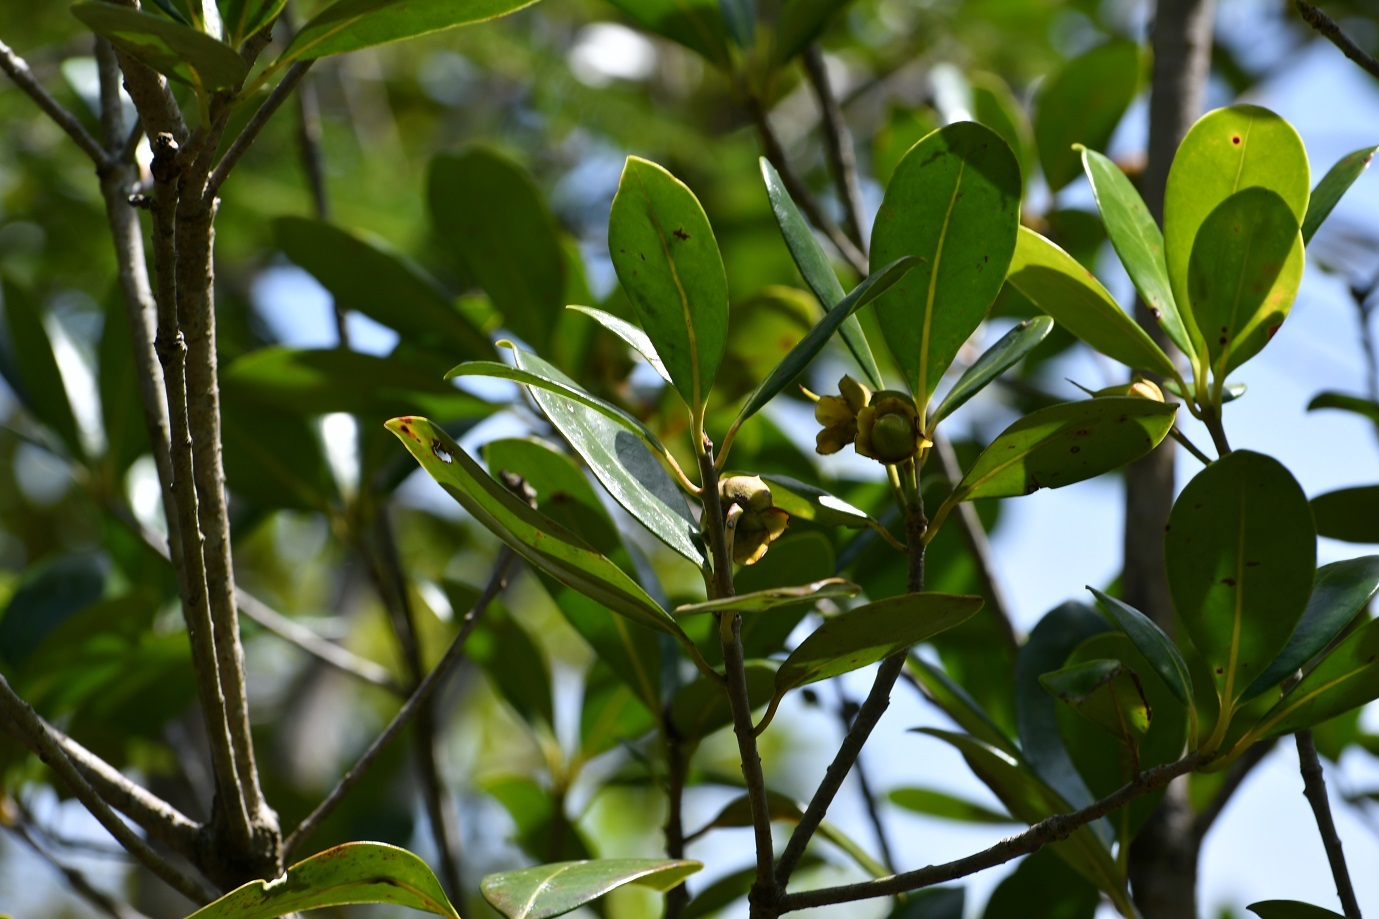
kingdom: Plantae
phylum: Tracheophyta
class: Magnoliopsida
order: Ericales
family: Pentaphylacaceae
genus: Ternstroemia
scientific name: Ternstroemia tepezapote
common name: Copey vera
